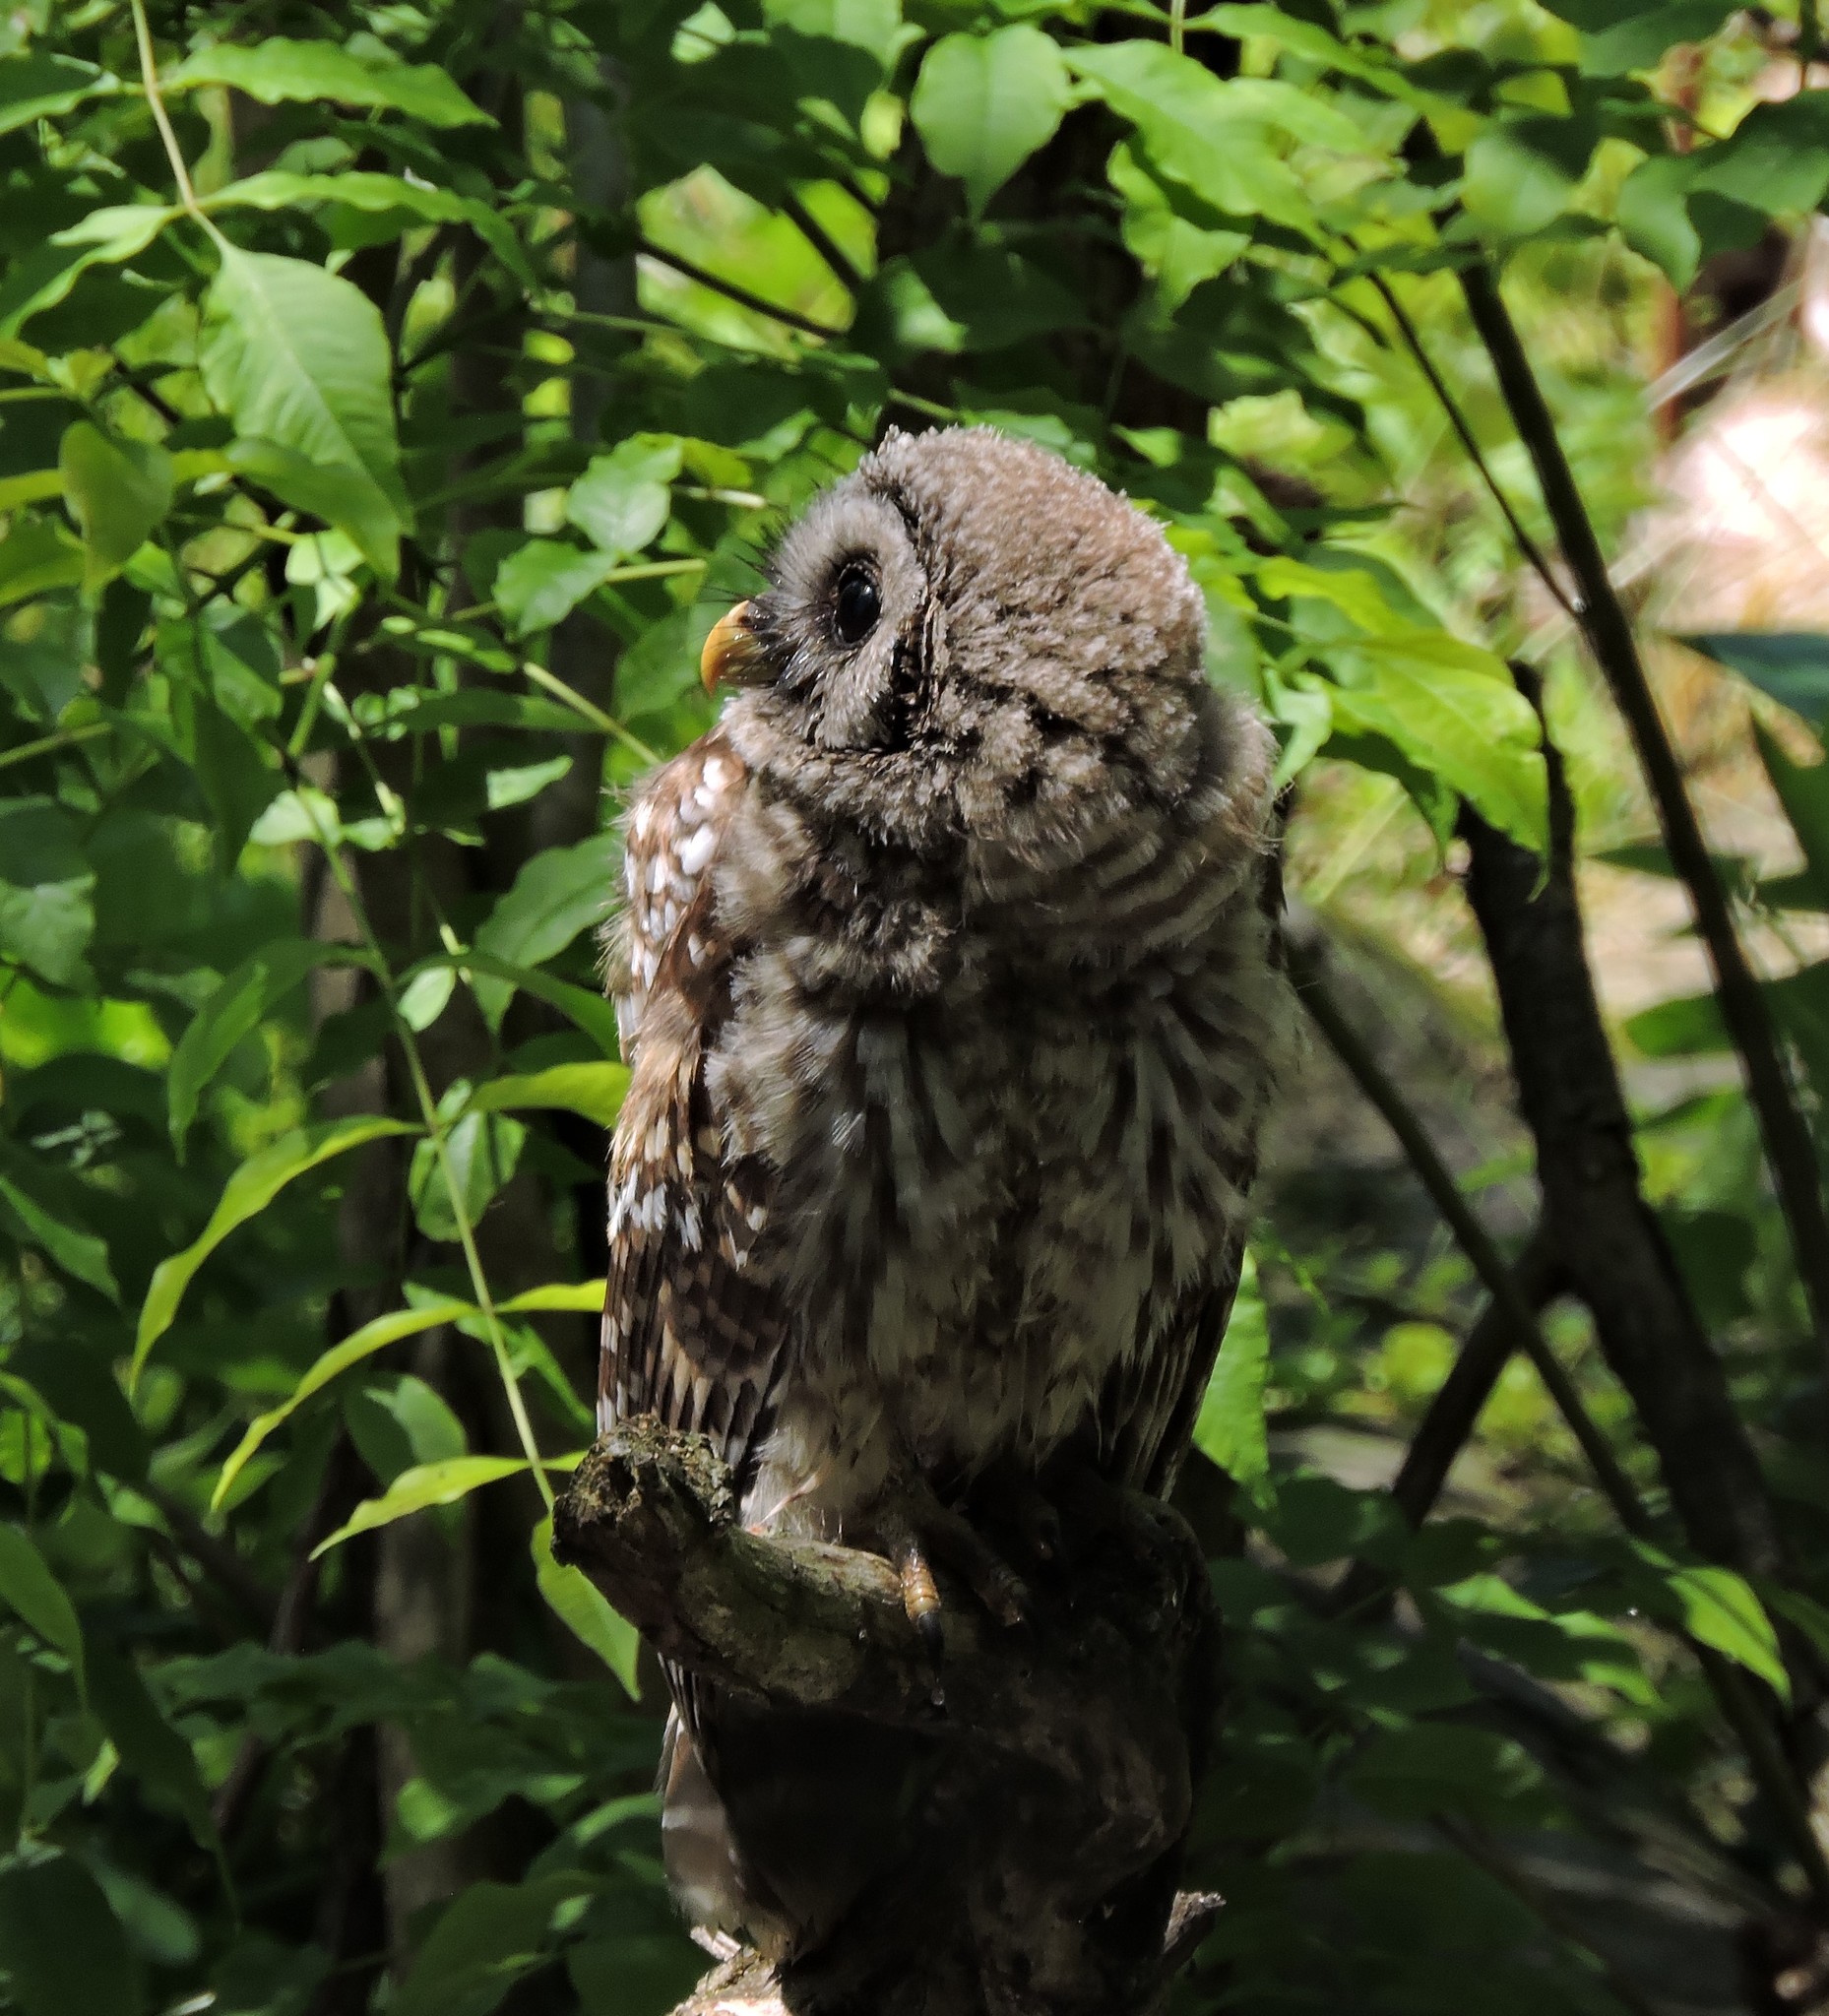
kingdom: Animalia
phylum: Chordata
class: Aves
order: Strigiformes
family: Strigidae
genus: Strix
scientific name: Strix varia
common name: Barred owl
